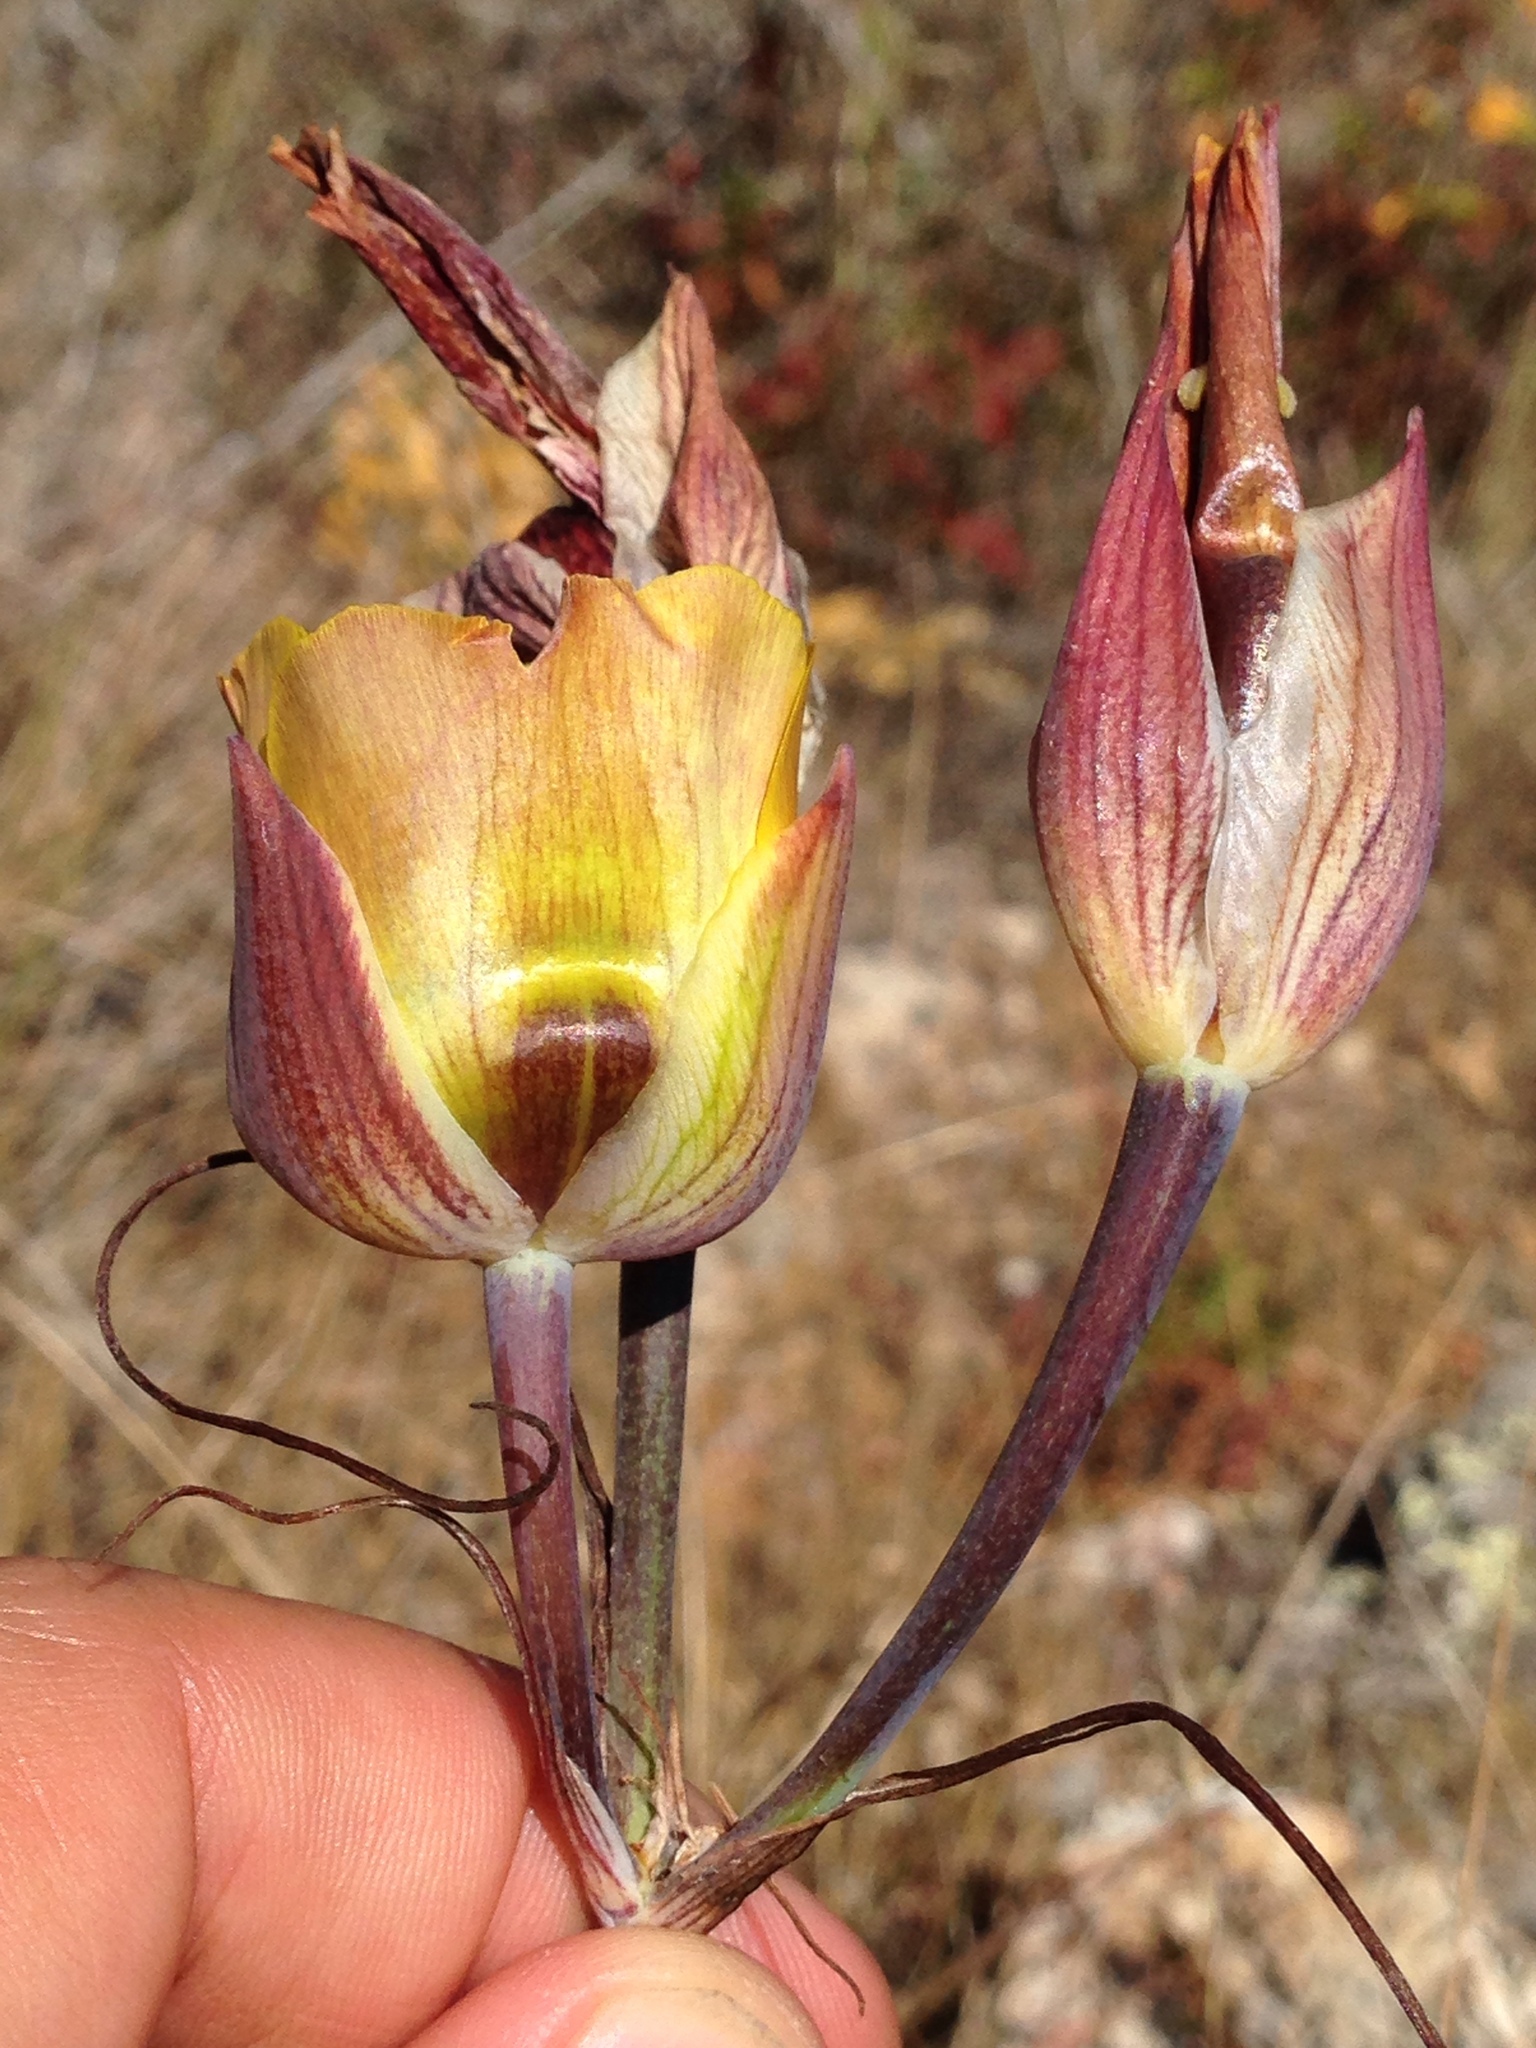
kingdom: Plantae
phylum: Tracheophyta
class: Liliopsida
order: Liliales
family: Liliaceae
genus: Calochortus
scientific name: Calochortus clavatus
